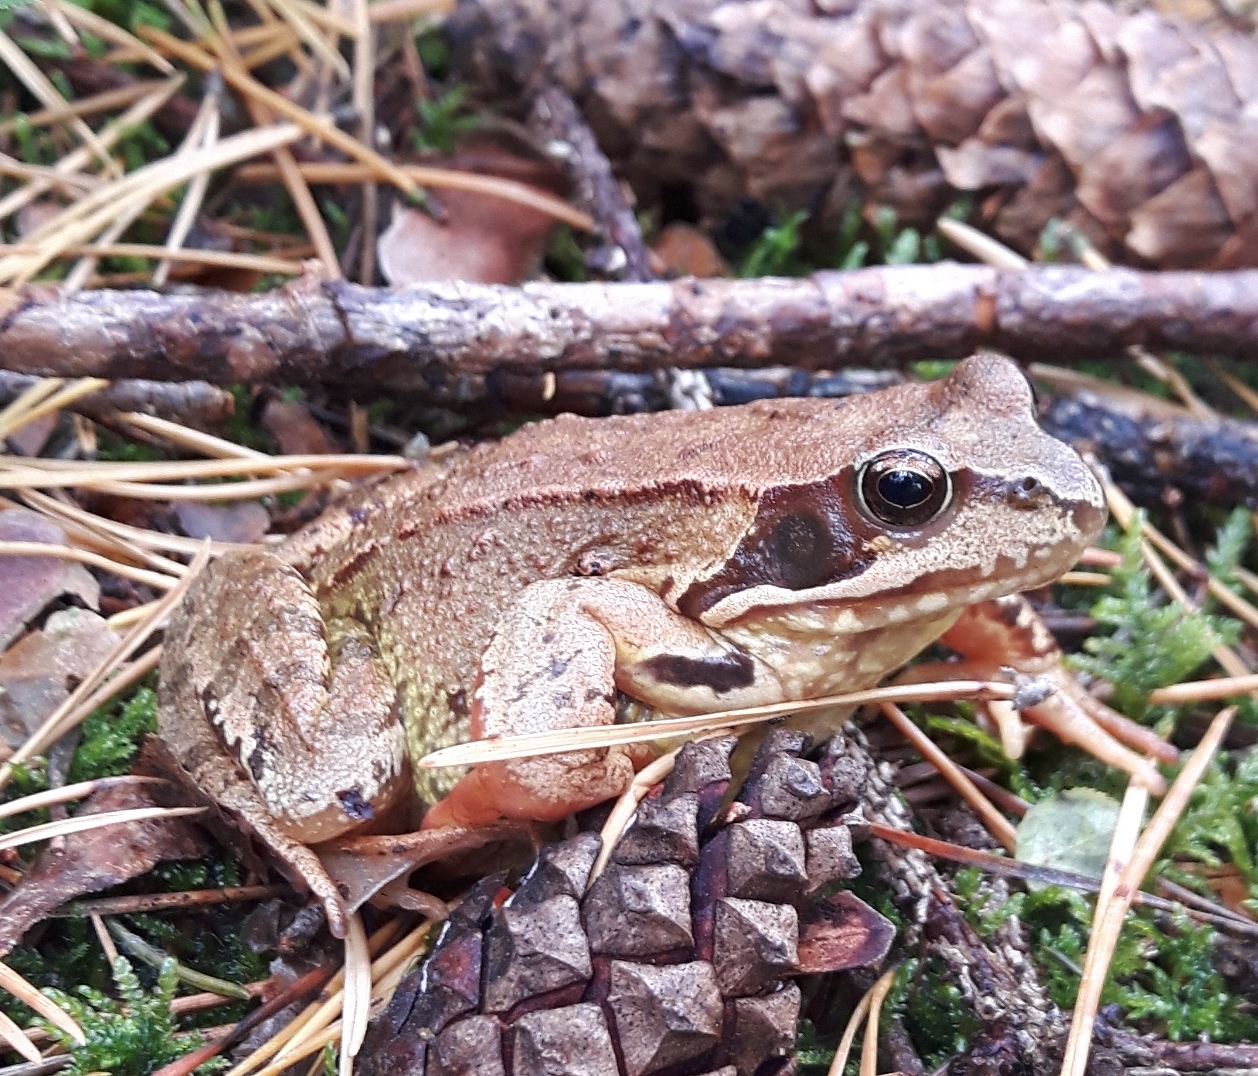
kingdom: Animalia
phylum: Chordata
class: Amphibia
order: Anura
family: Ranidae
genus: Rana
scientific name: Rana temporaria
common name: Common frog
